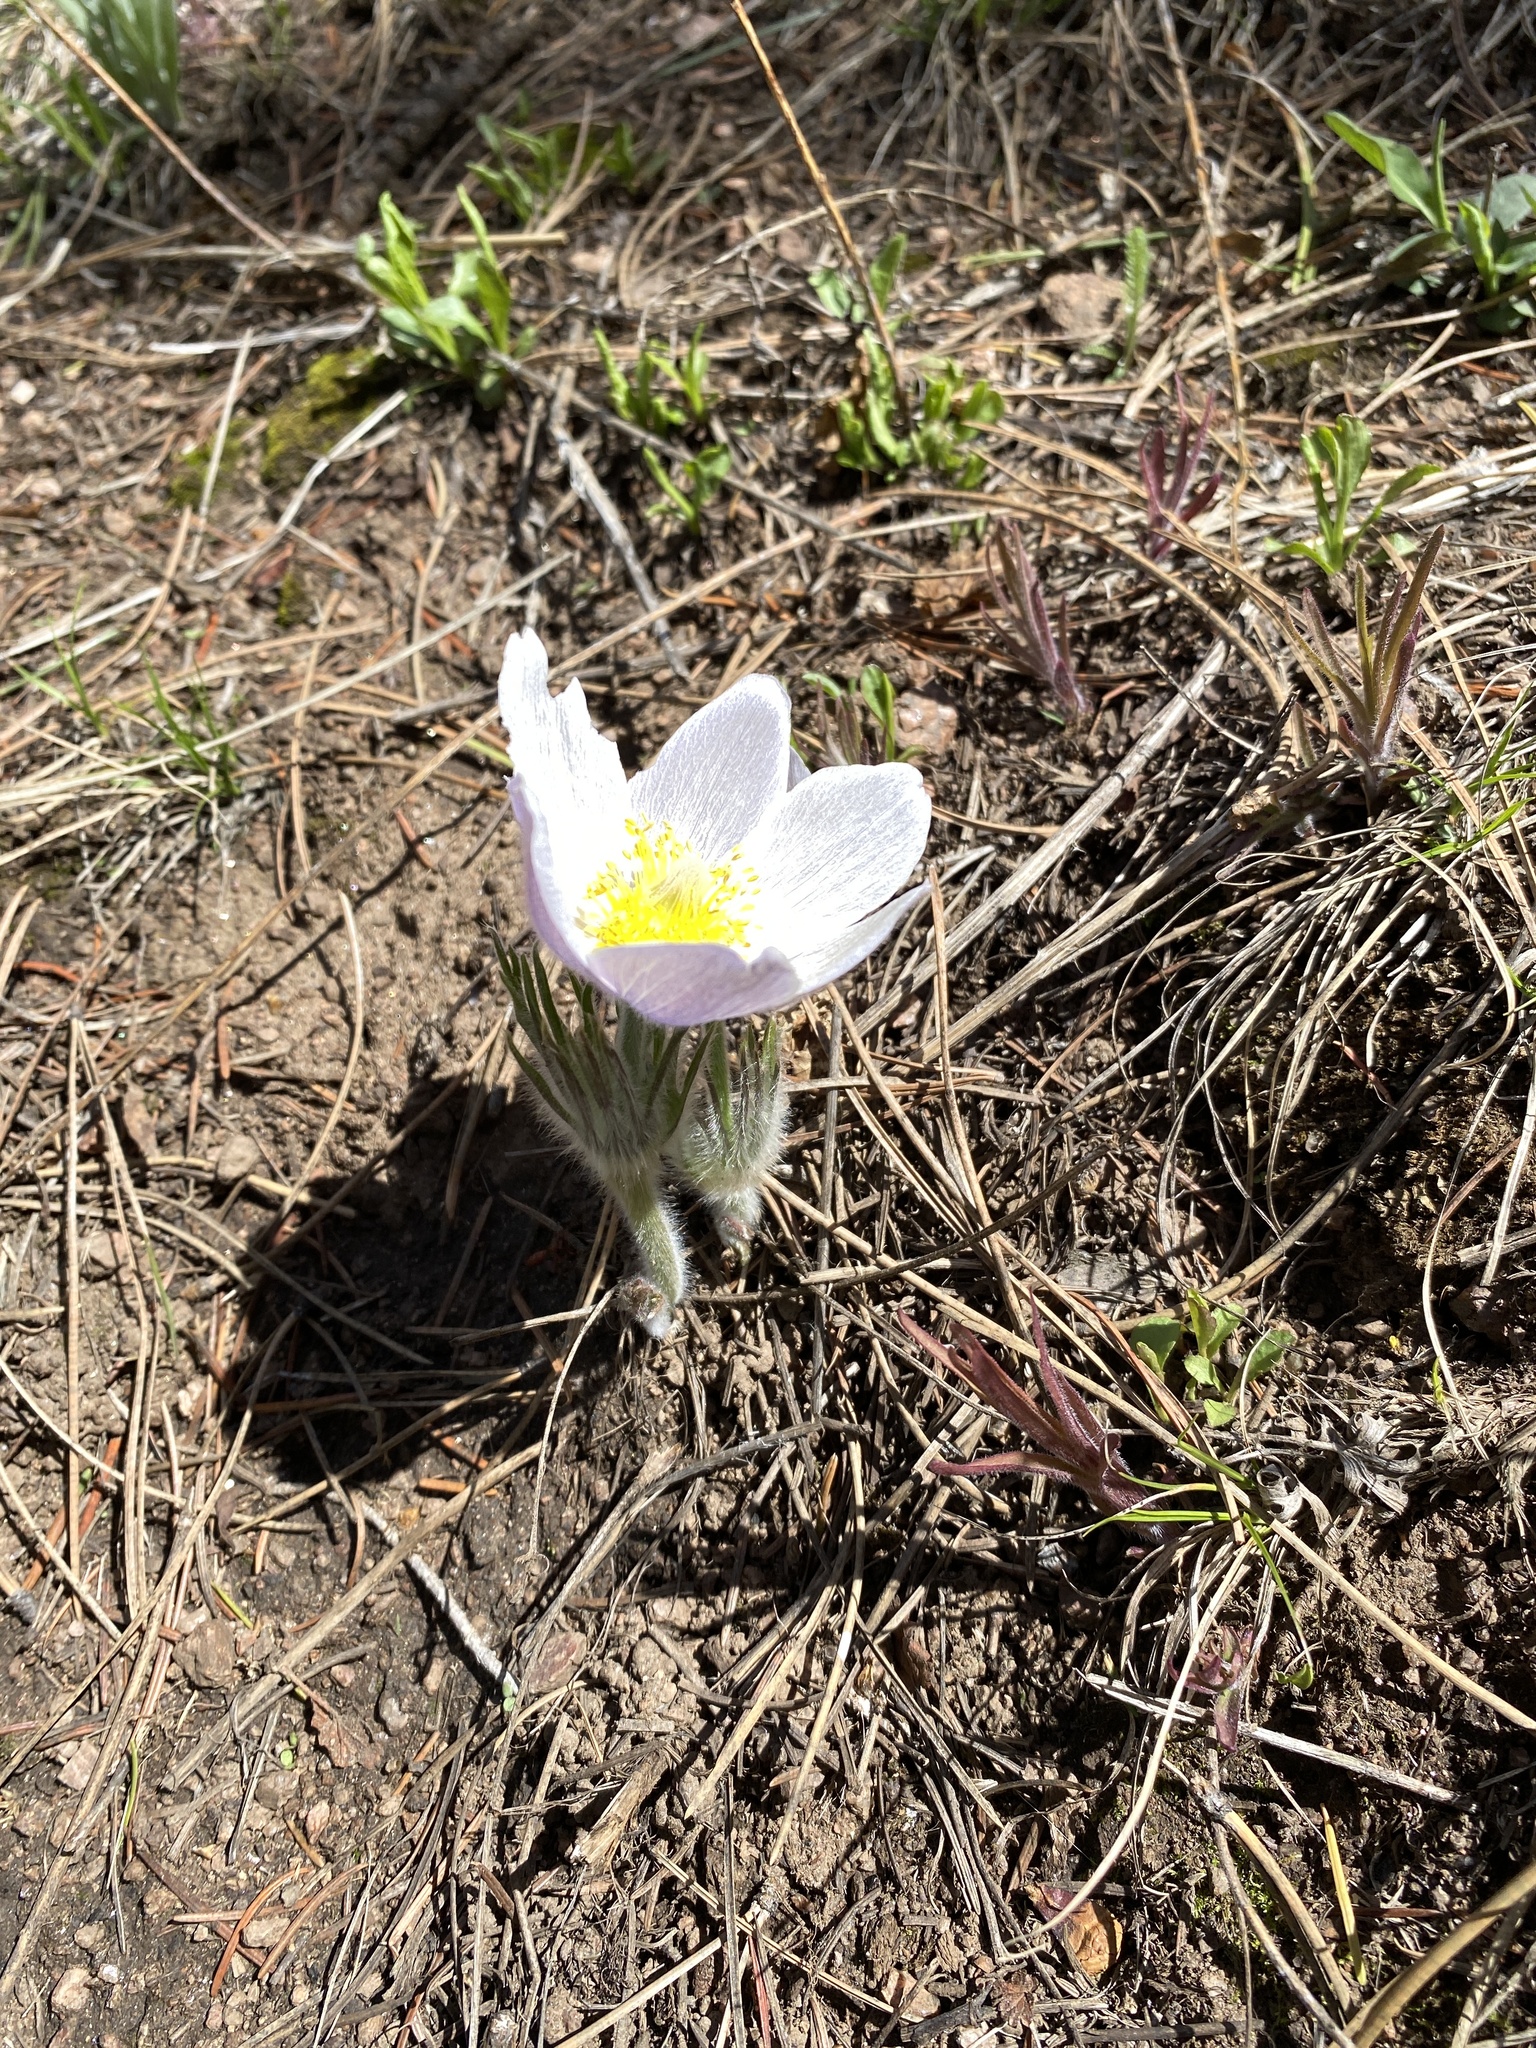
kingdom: Plantae
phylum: Tracheophyta
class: Magnoliopsida
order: Ranunculales
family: Ranunculaceae
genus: Pulsatilla
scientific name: Pulsatilla nuttalliana
